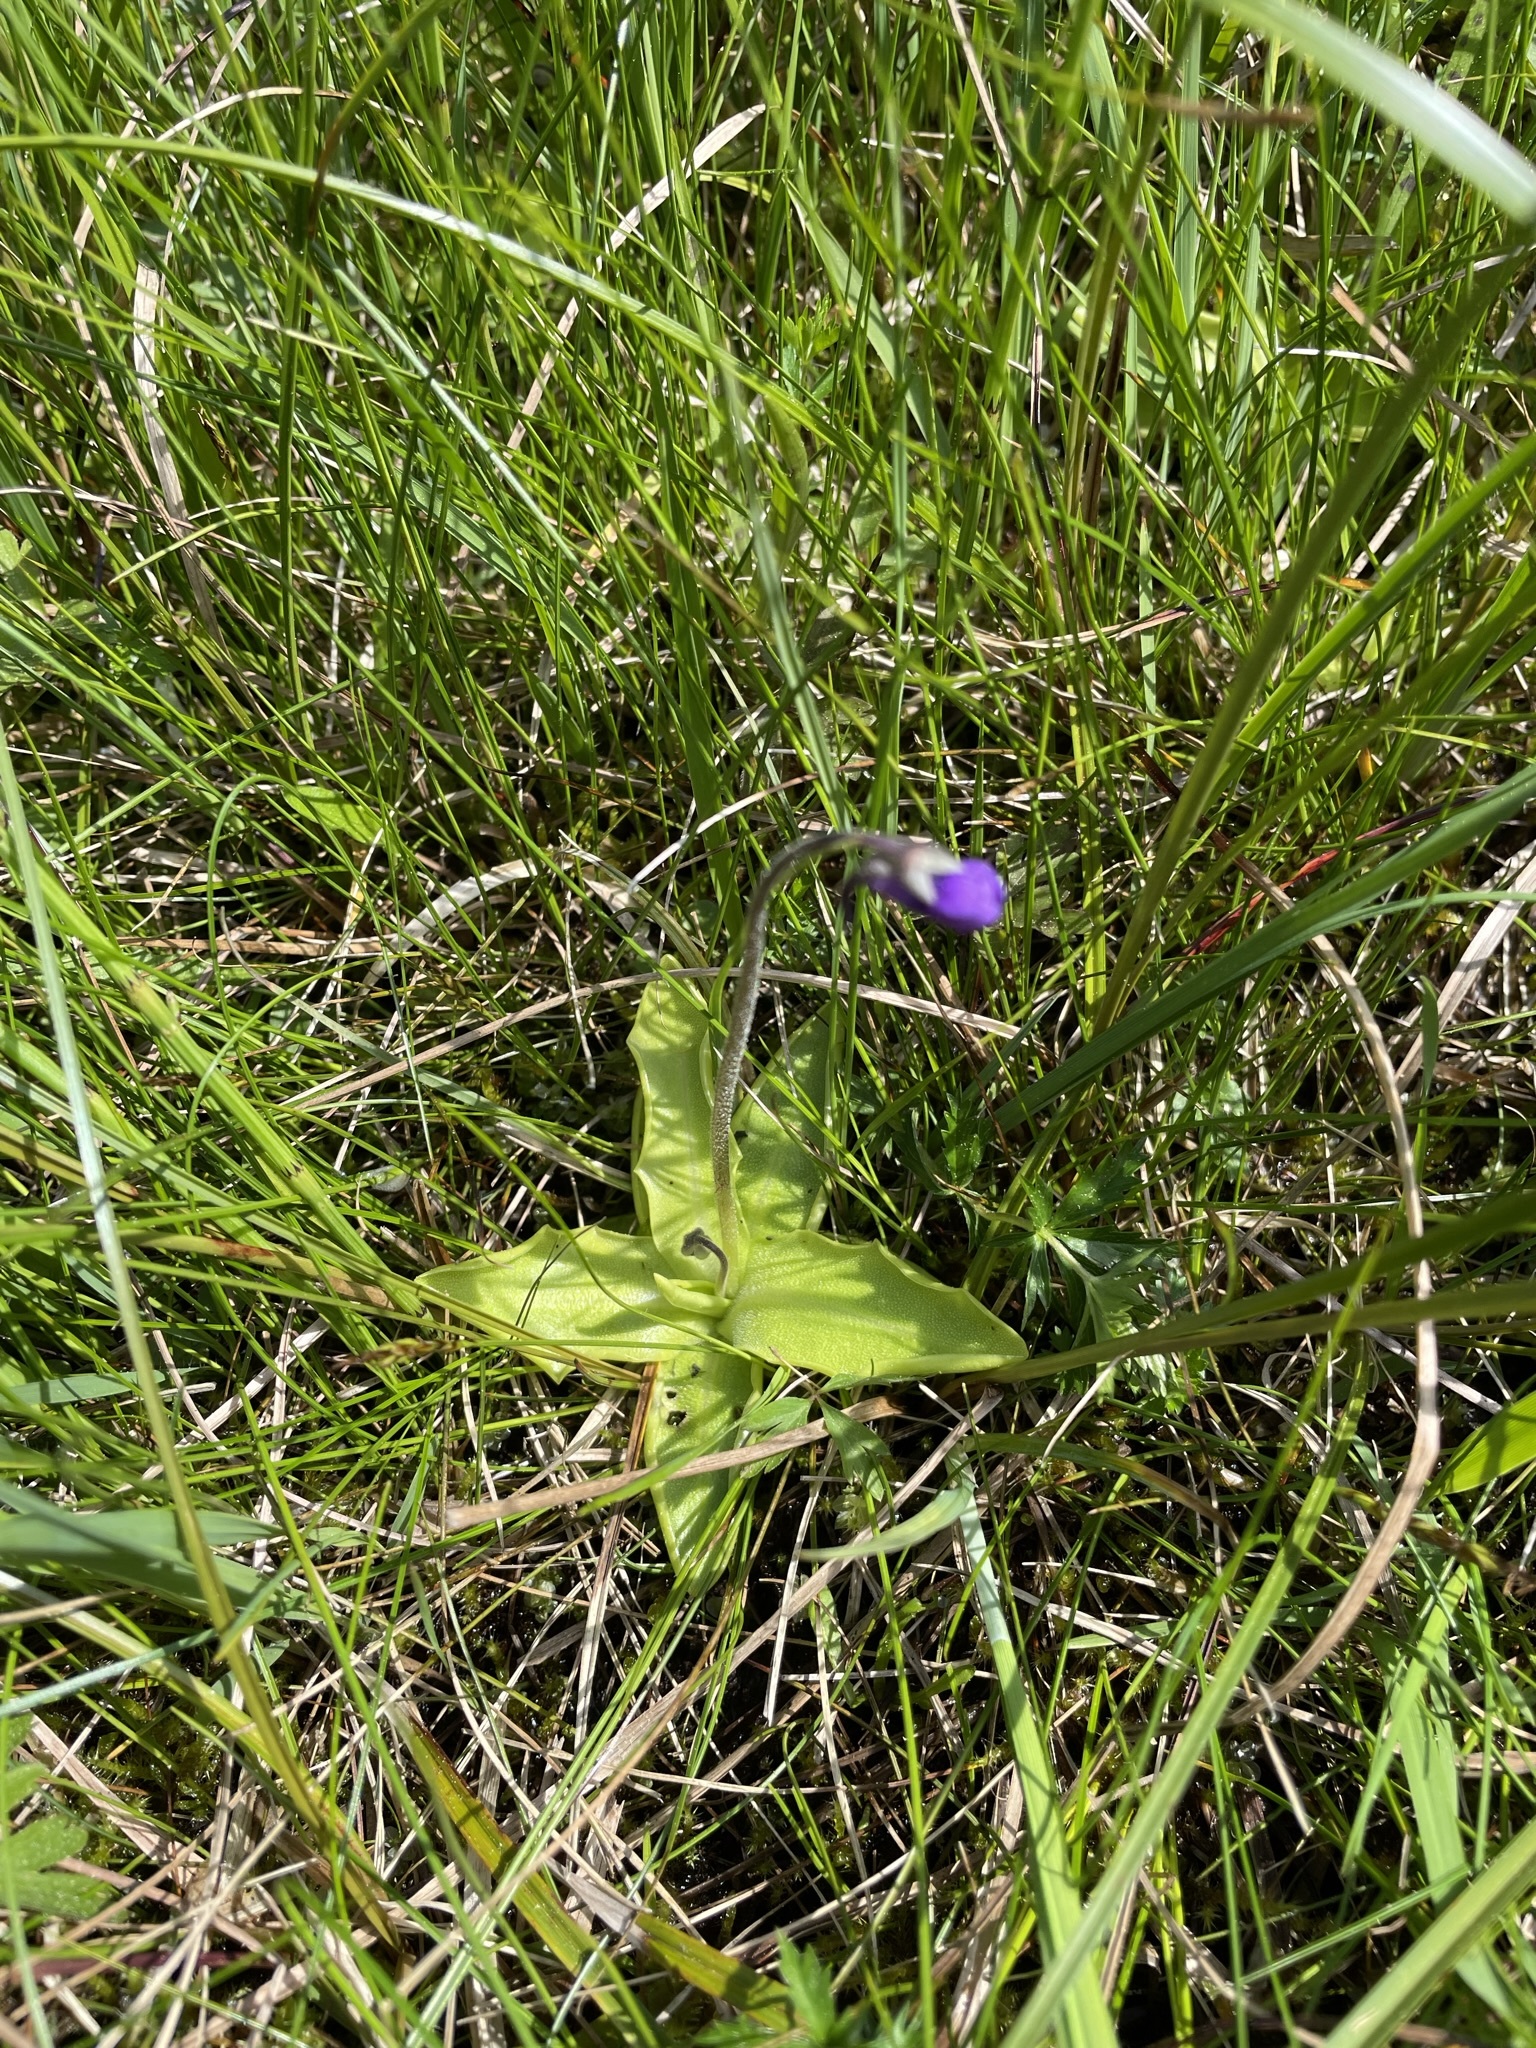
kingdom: Plantae
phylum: Tracheophyta
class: Magnoliopsida
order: Lamiales
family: Lentibulariaceae
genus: Pinguicula
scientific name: Pinguicula vulgaris
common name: Common butterwort
